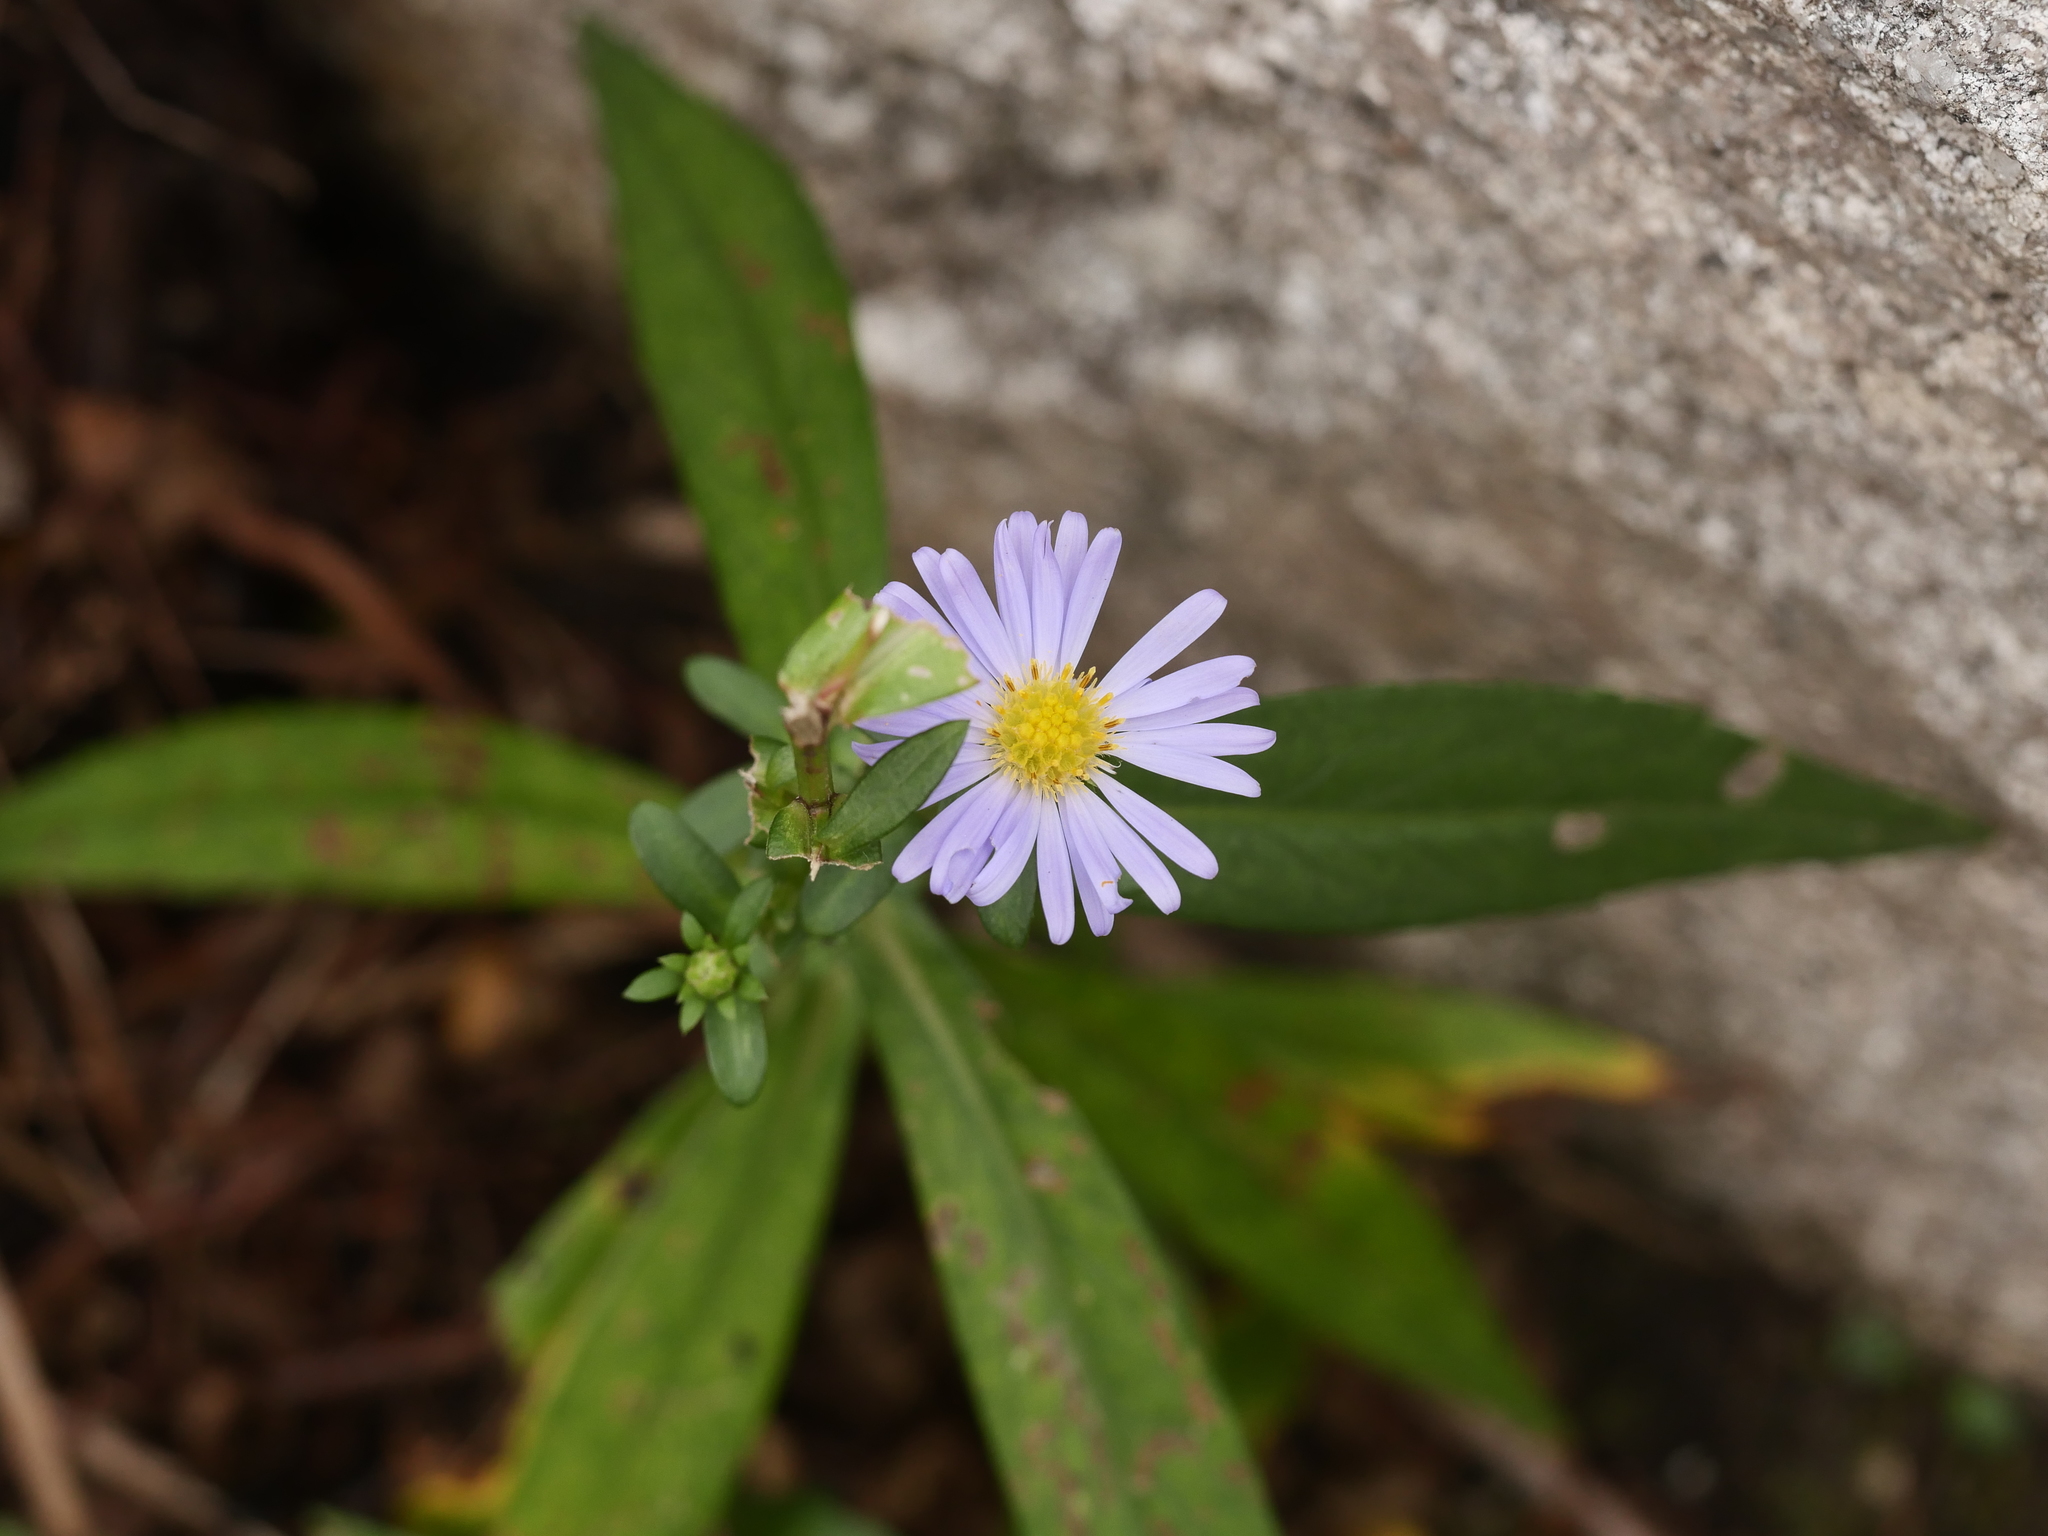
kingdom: Plantae
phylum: Tracheophyta
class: Magnoliopsida
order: Asterales
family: Asteraceae
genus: Symphyotrichum
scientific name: Symphyotrichum novi-belgii
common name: Michaelmas daisy
